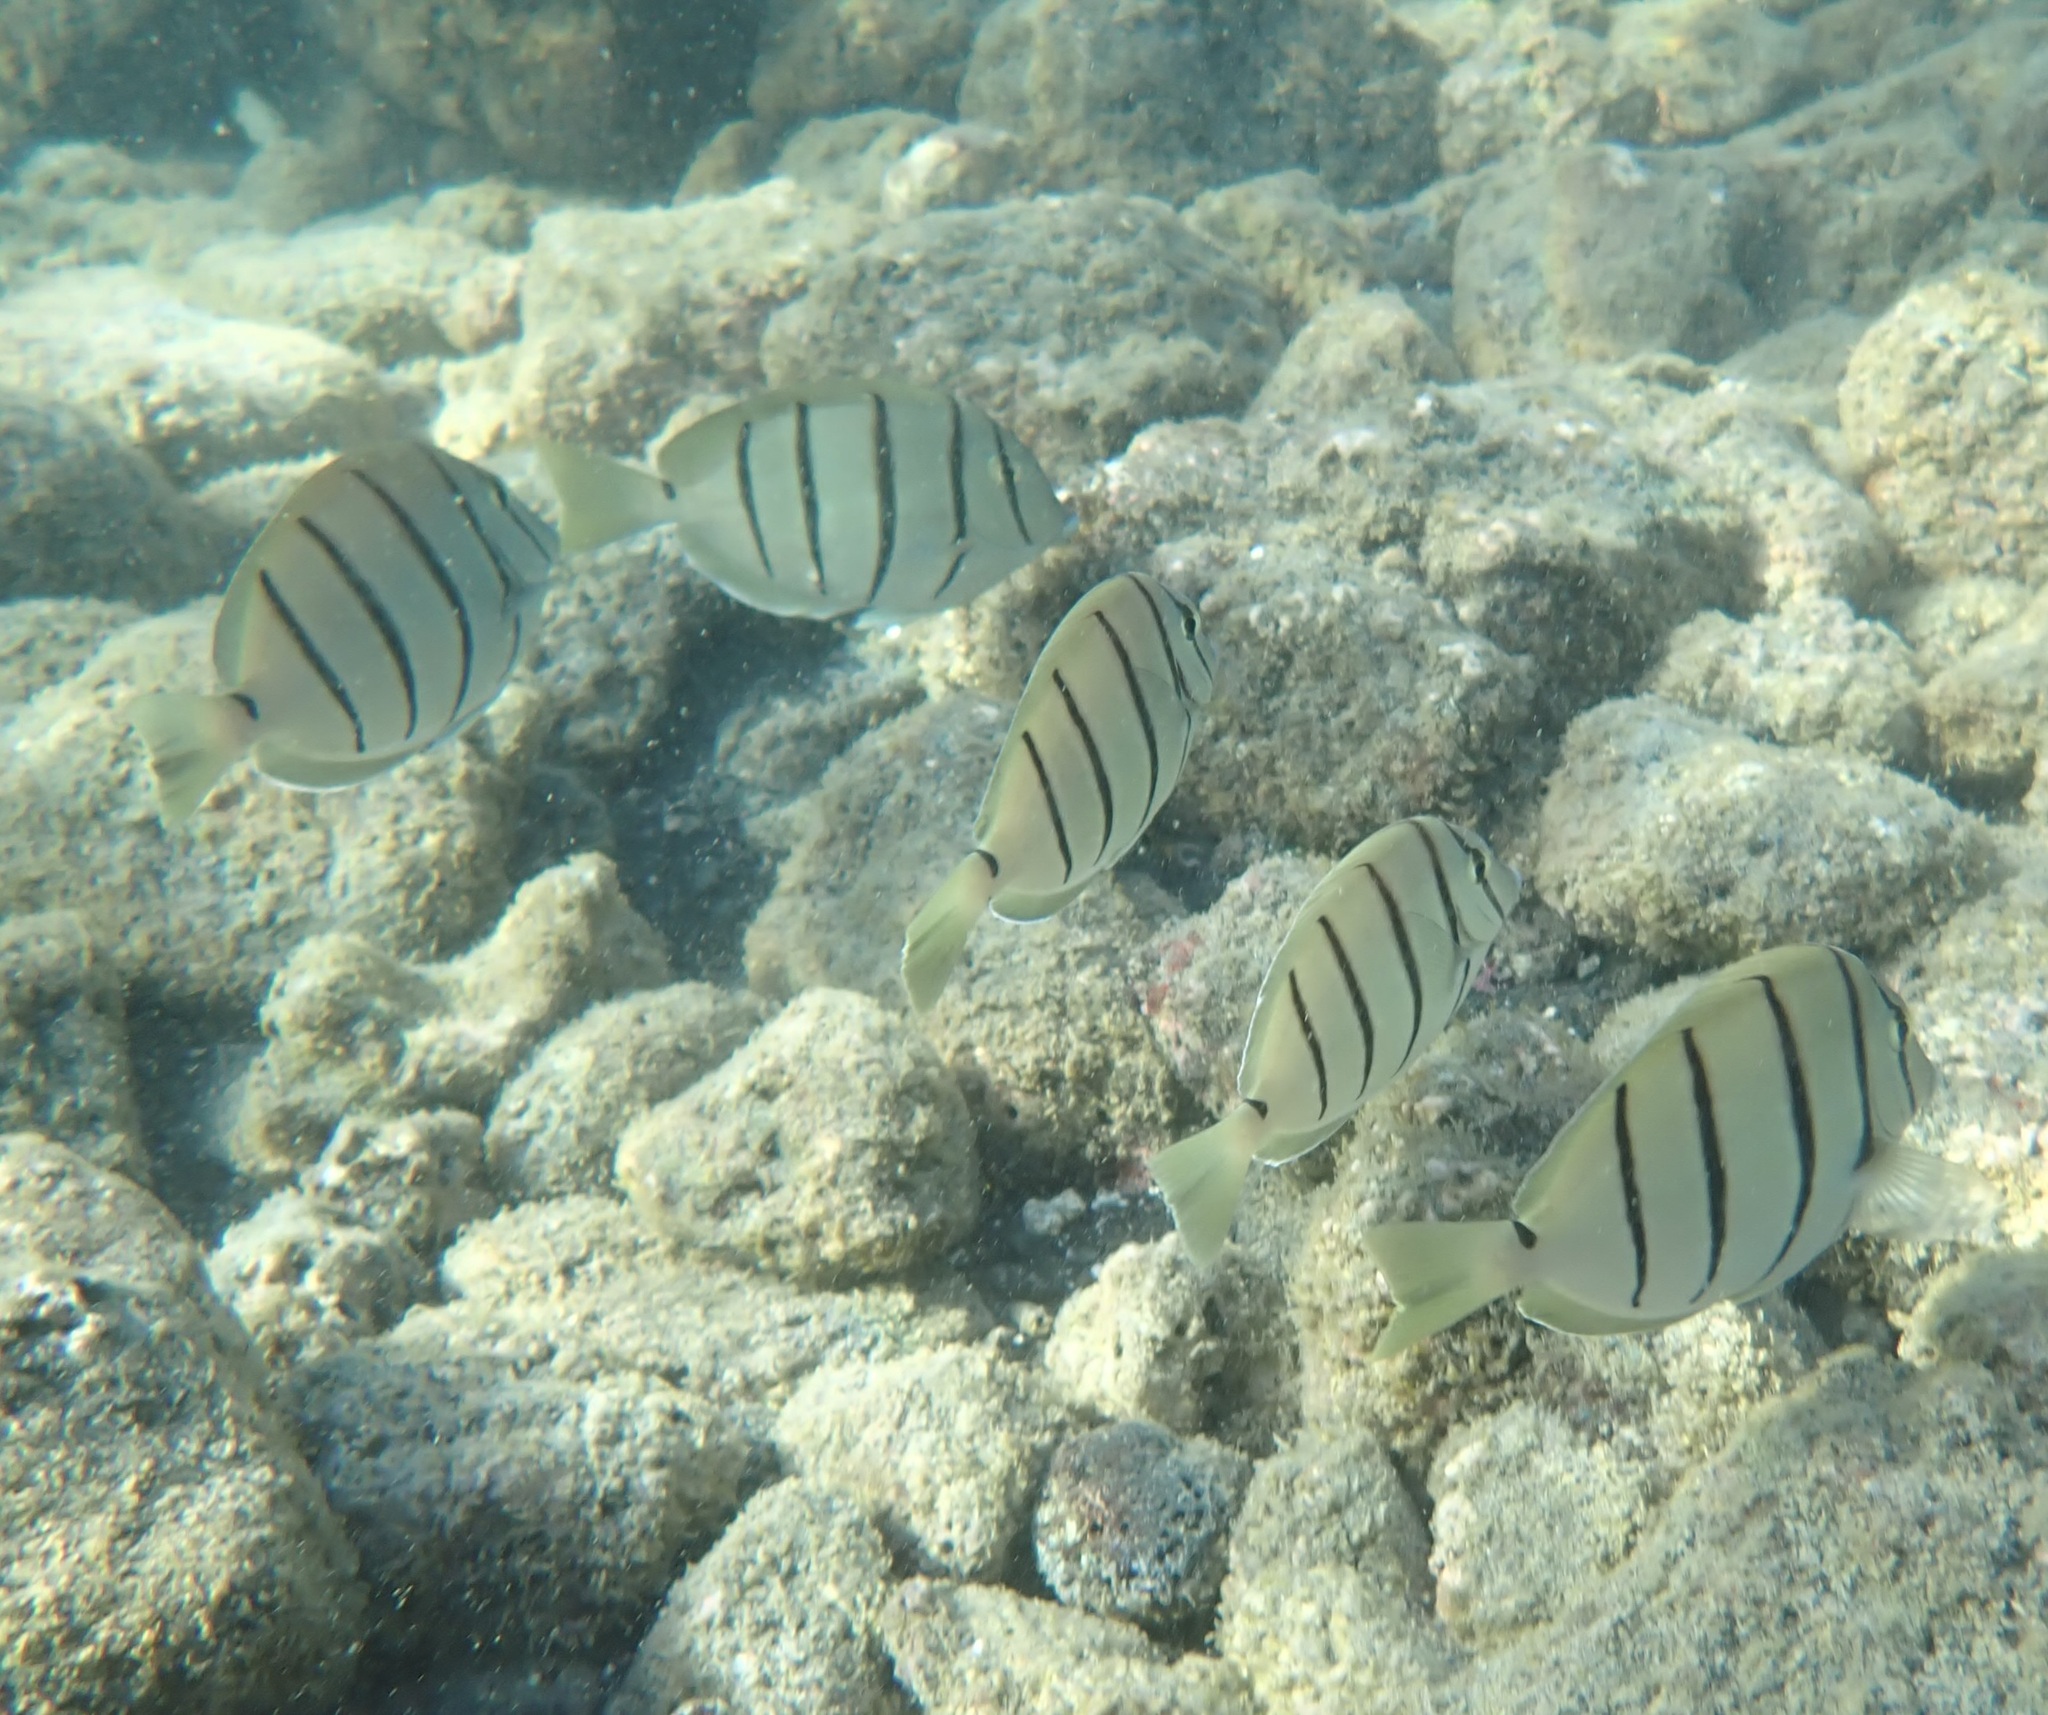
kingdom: Animalia
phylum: Chordata
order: Perciformes
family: Acanthuridae
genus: Acanthurus
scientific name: Acanthurus triostegus
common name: Convict surgeonfish
